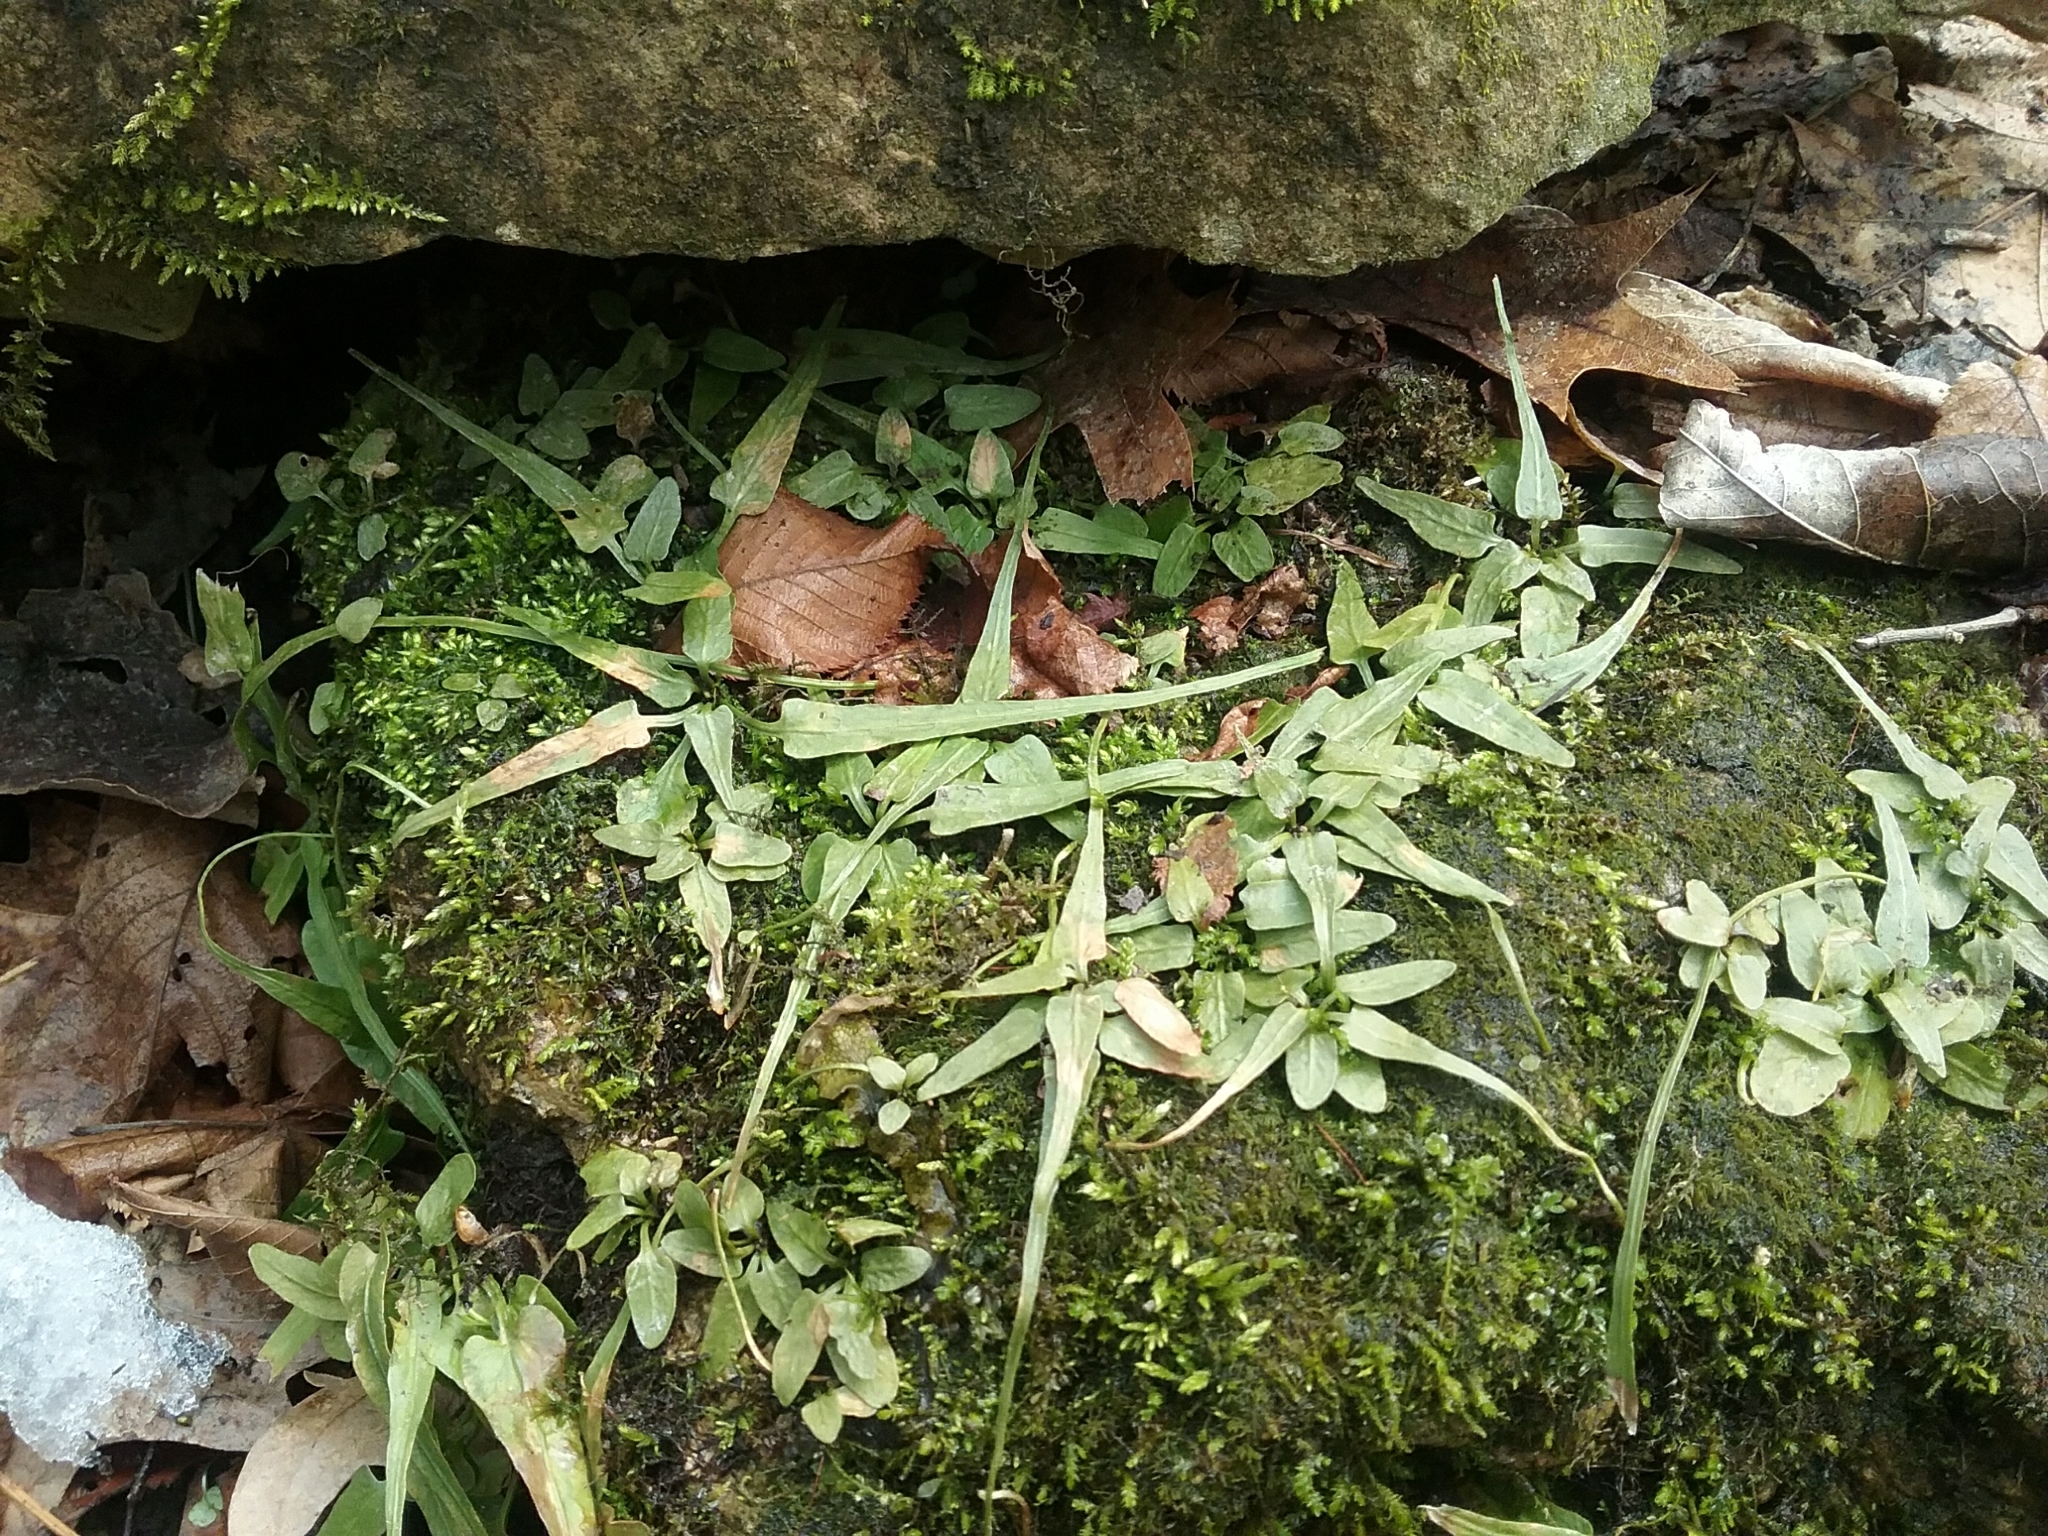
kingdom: Plantae
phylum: Tracheophyta
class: Polypodiopsida
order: Polypodiales
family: Aspleniaceae
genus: Asplenium
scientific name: Asplenium rhizophyllum
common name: Walking fern
